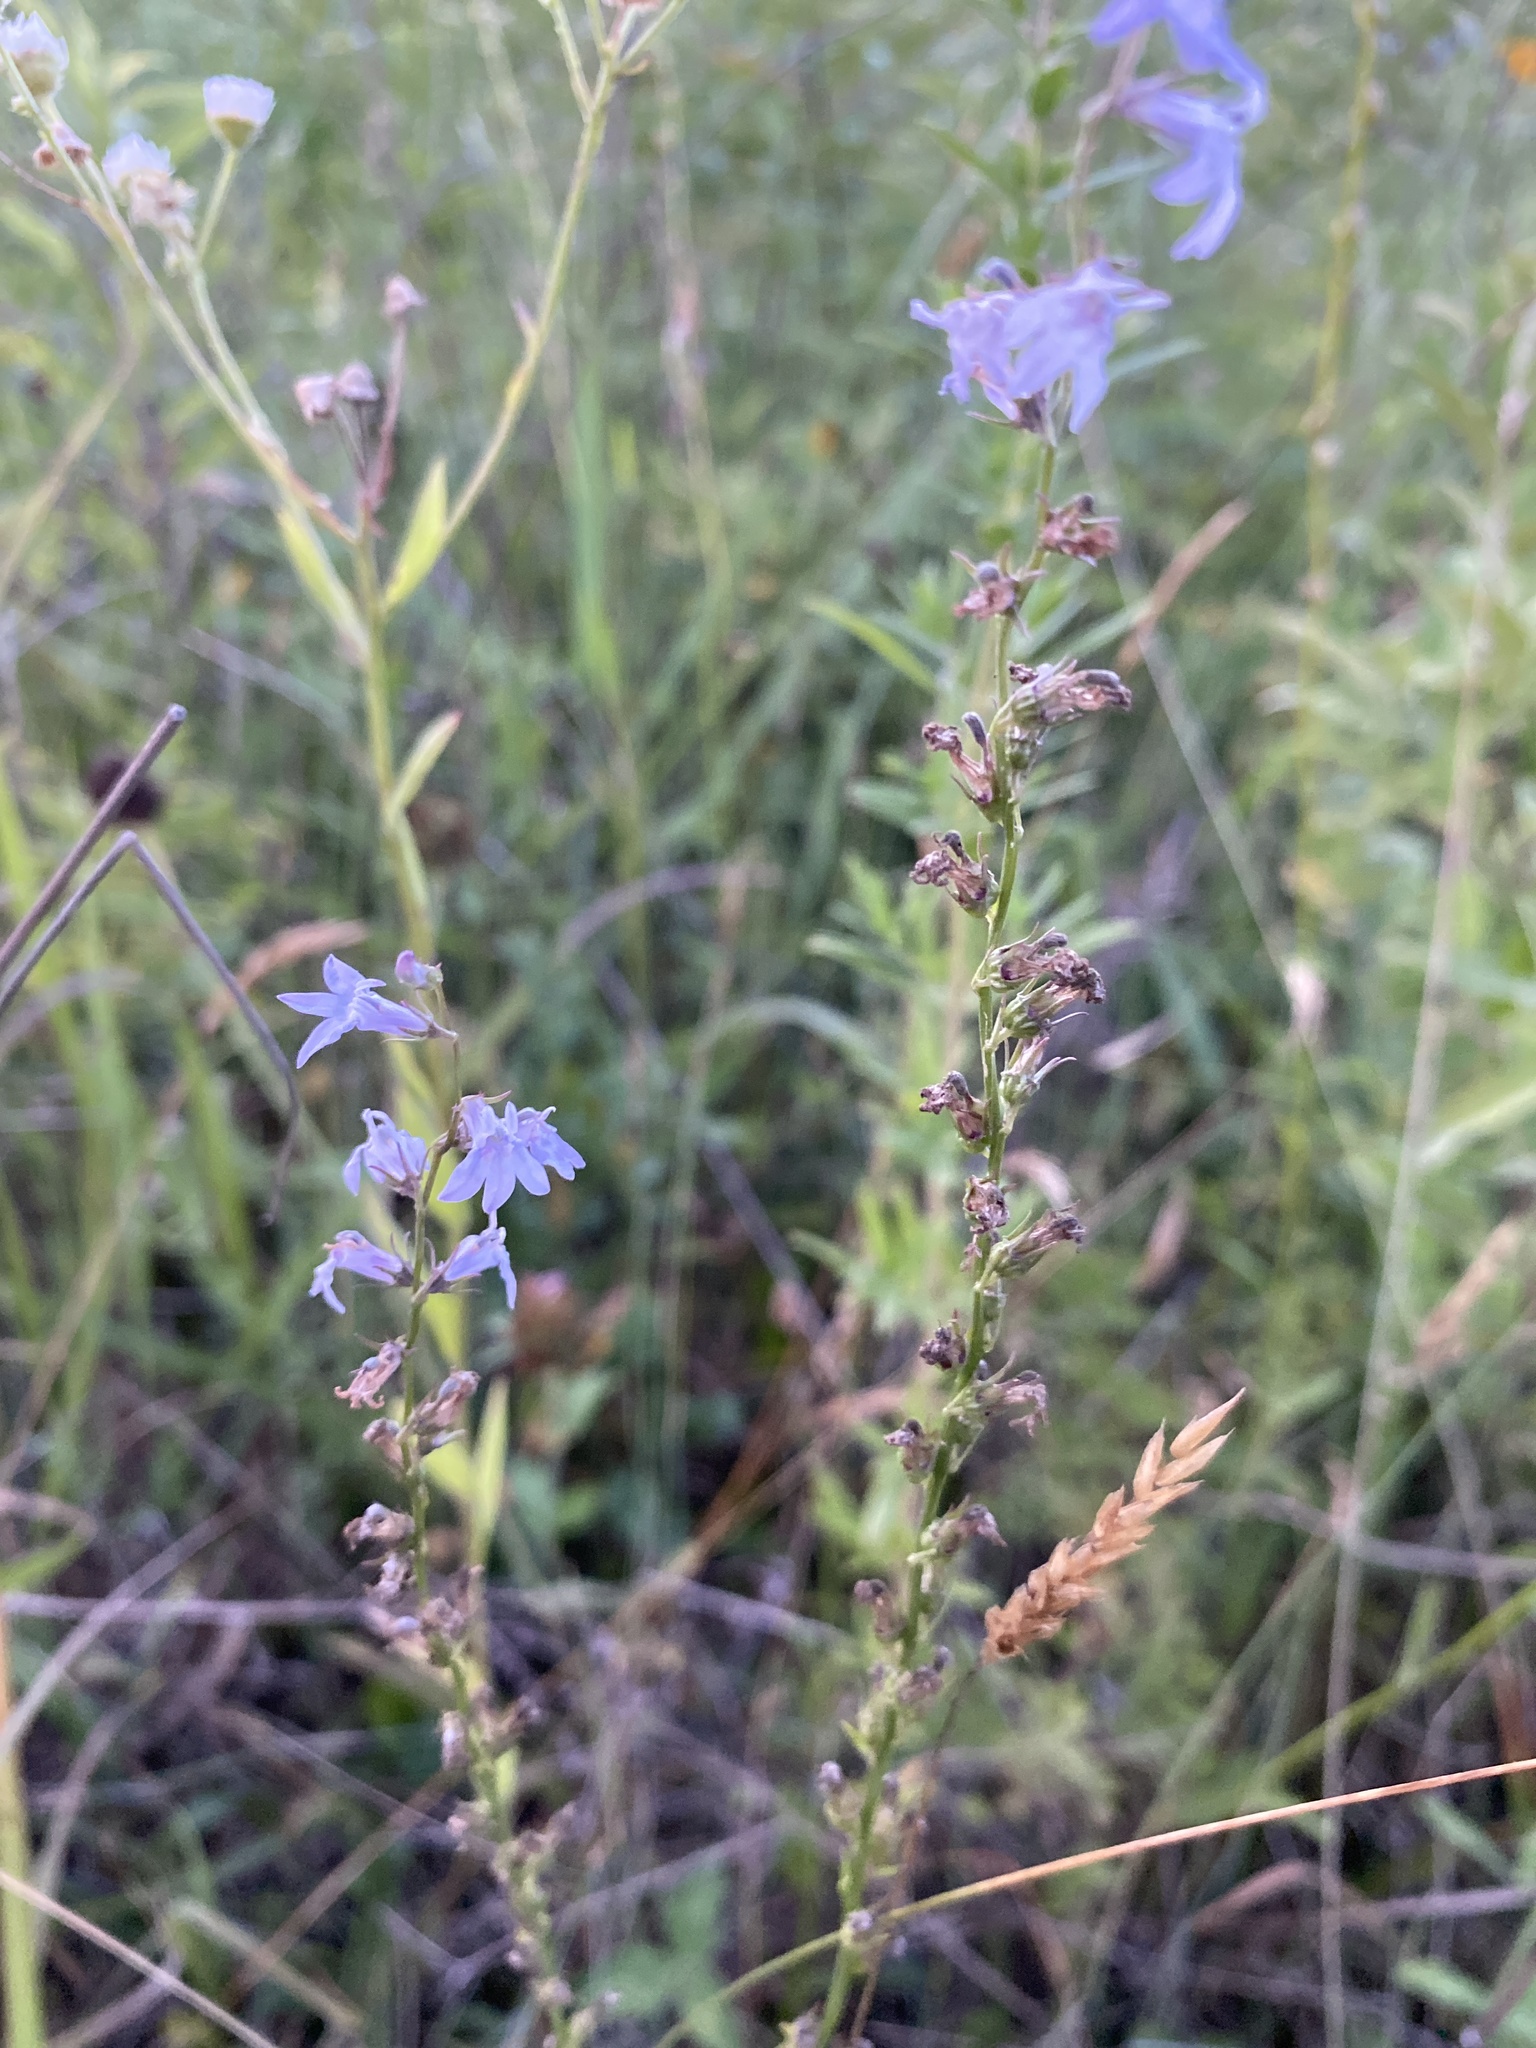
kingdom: Plantae
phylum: Tracheophyta
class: Magnoliopsida
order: Asterales
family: Campanulaceae
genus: Lobelia
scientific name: Lobelia spicata
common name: Pale-spike lobelia
